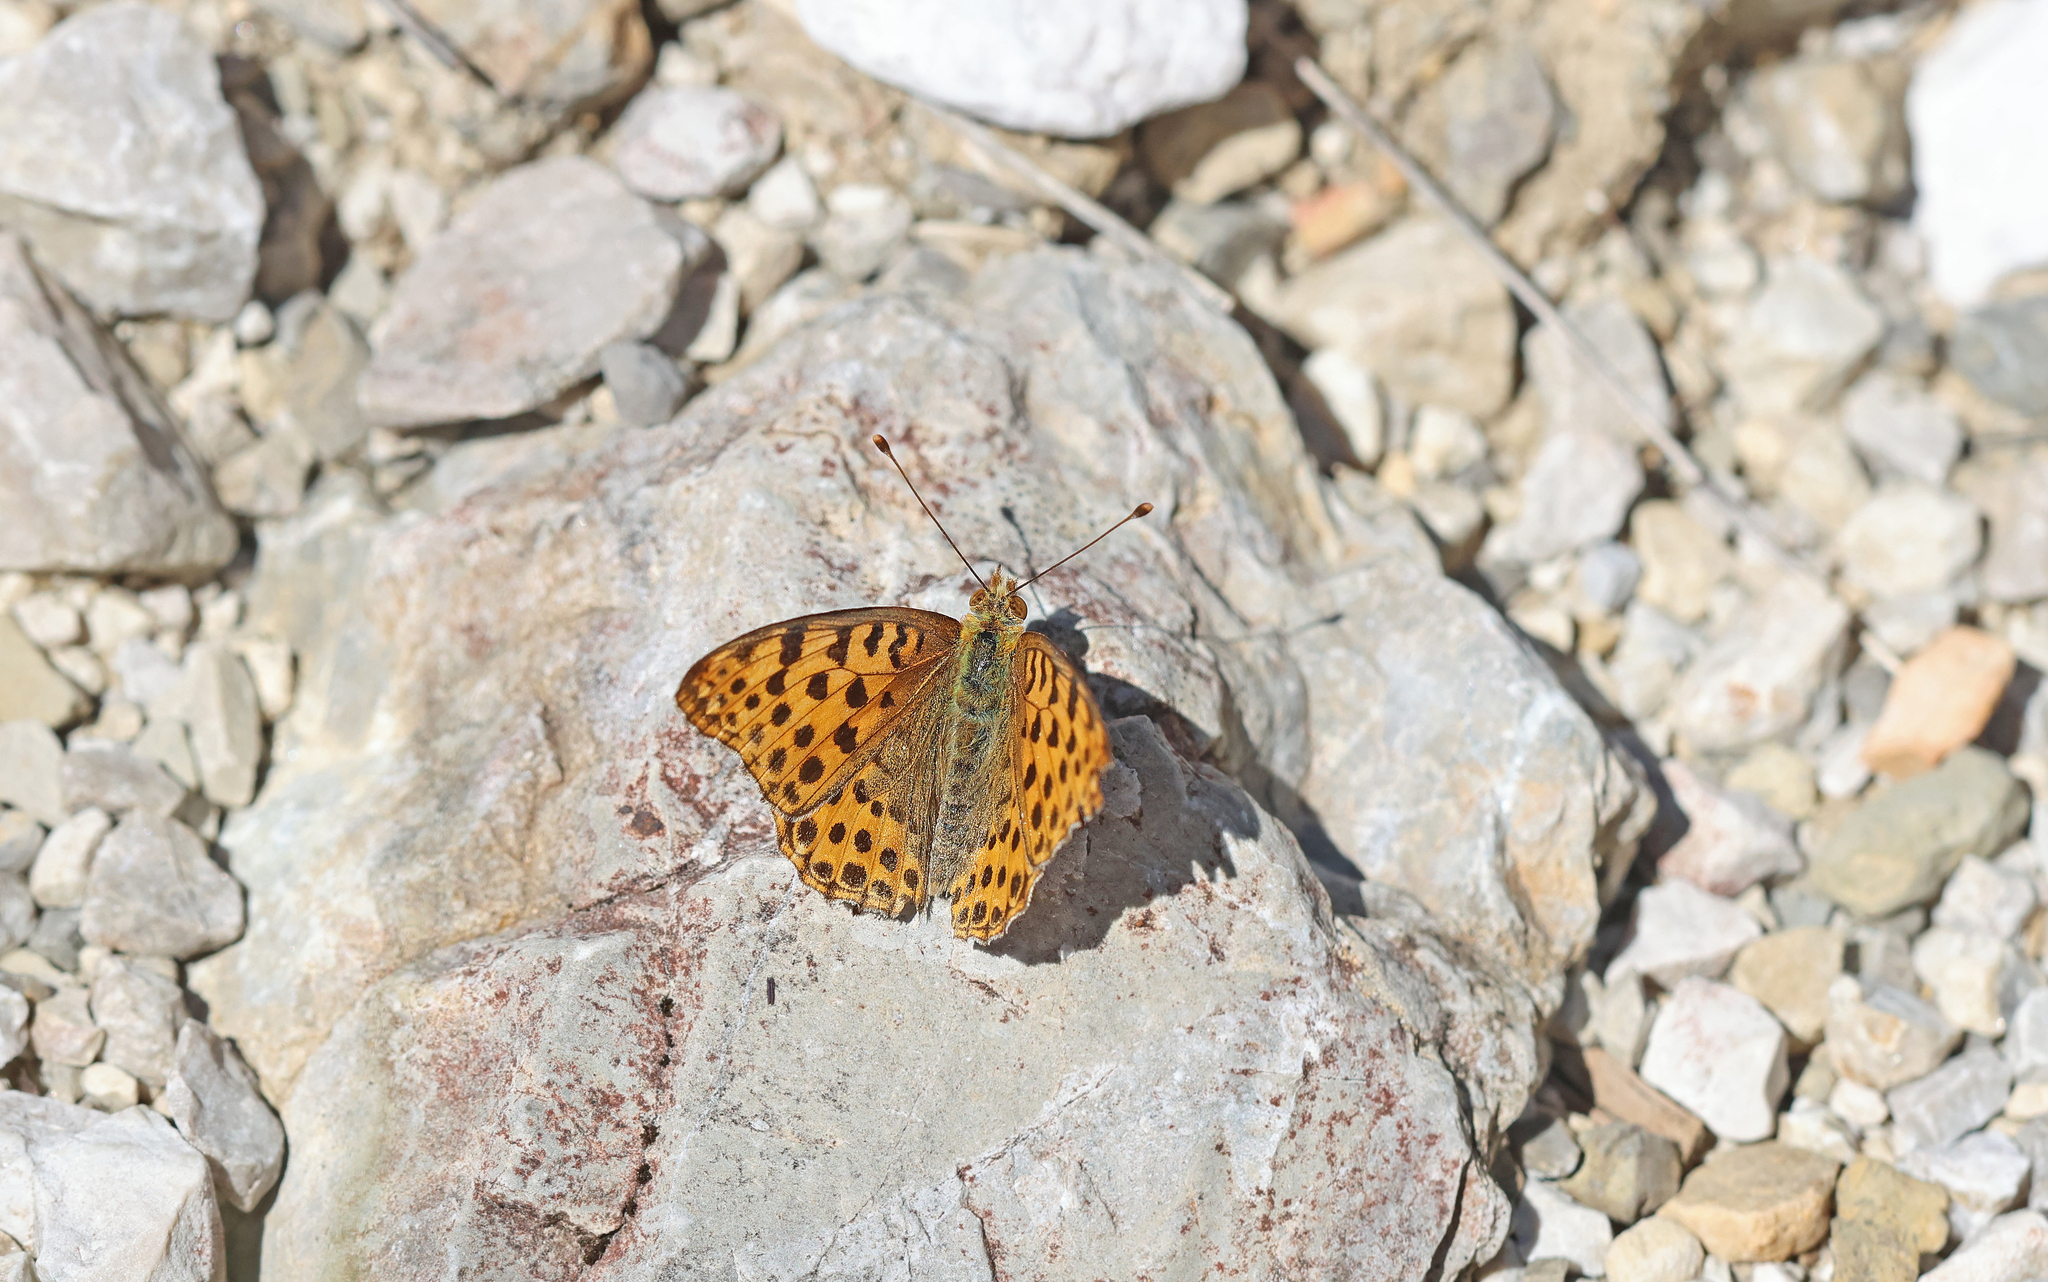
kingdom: Animalia
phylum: Arthropoda
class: Insecta
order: Lepidoptera
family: Nymphalidae
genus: Issoria
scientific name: Issoria lathonia
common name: Queen of spain fritillary
